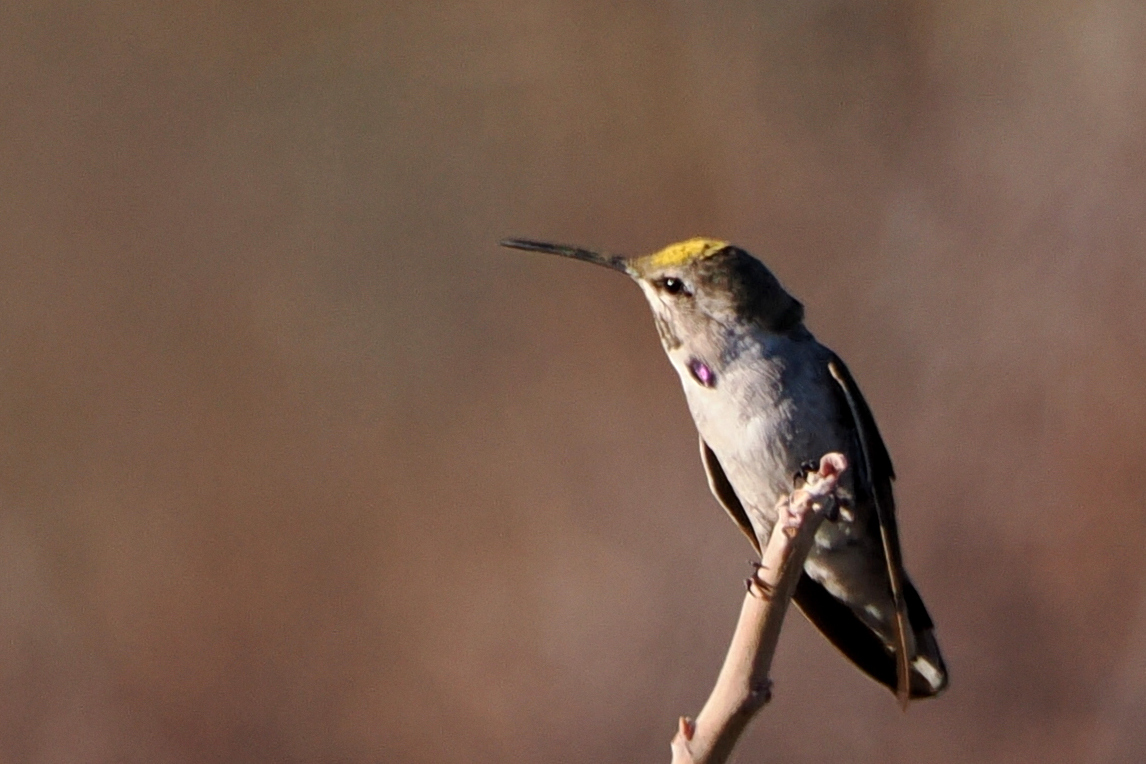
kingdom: Animalia
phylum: Chordata
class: Aves
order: Apodiformes
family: Trochilidae
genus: Calypte
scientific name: Calypte costae
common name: Costa's hummingbird
